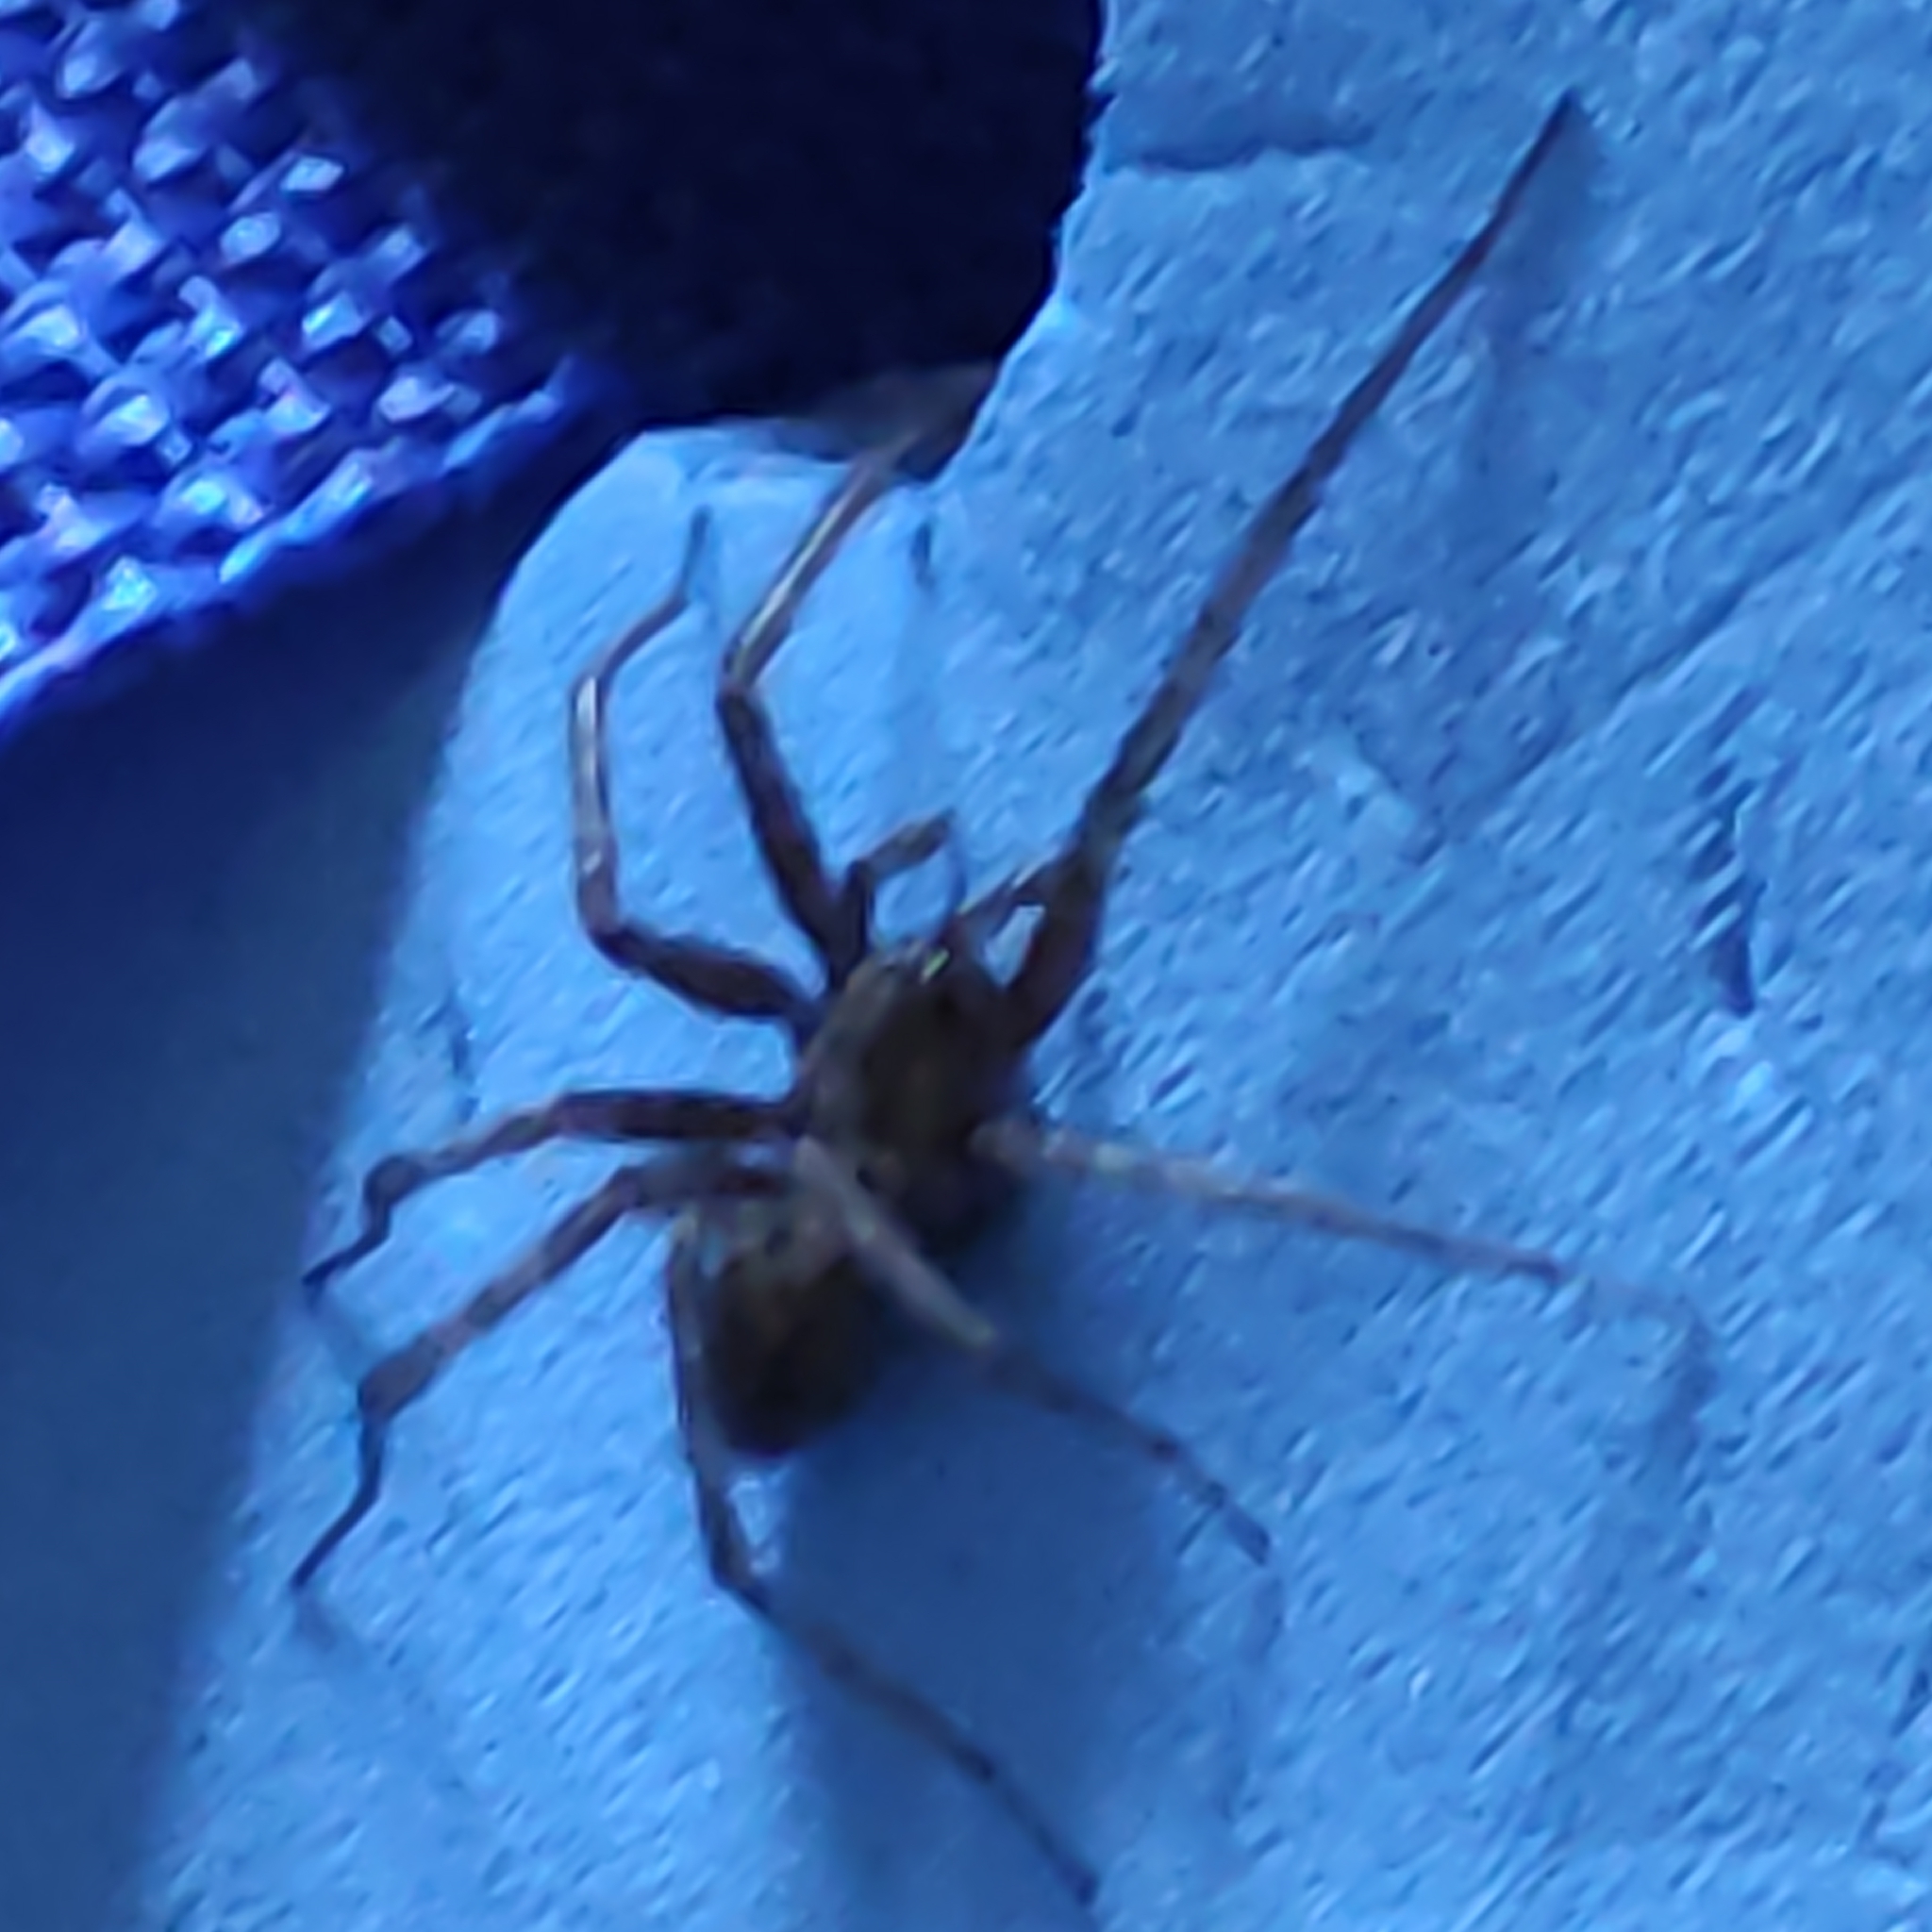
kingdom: Animalia
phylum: Arthropoda
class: Arachnida
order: Araneae
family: Agelenidae
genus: Tegenaria
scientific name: Tegenaria domestica
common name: Barn funnel weaver
